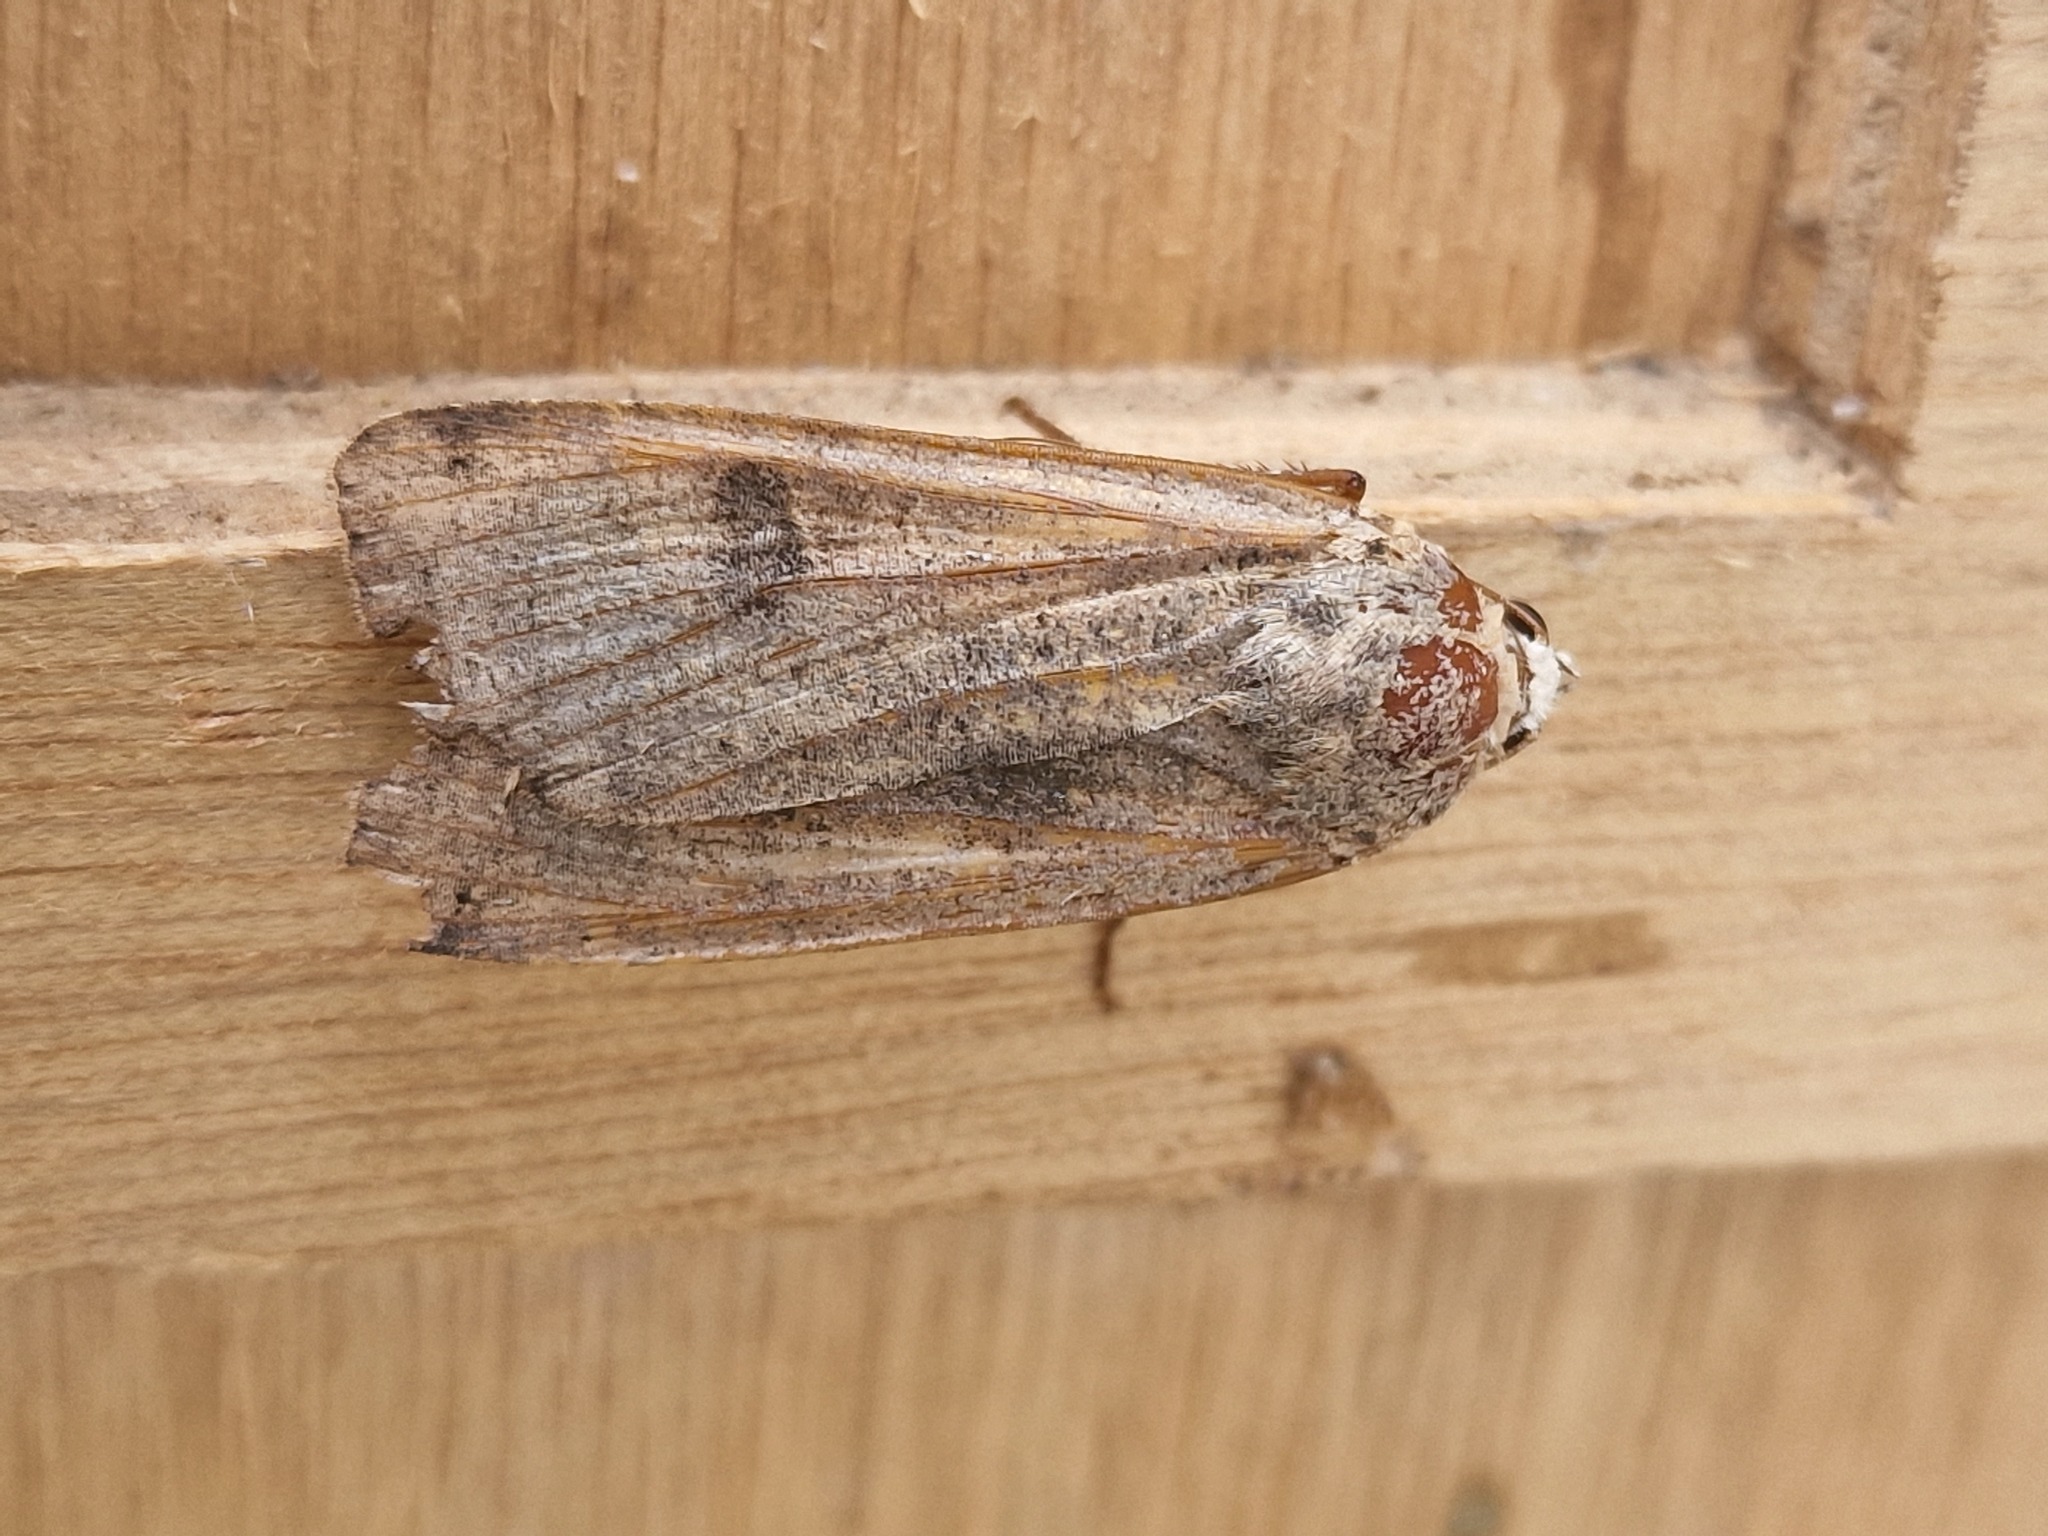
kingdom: Animalia
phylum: Arthropoda
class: Insecta
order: Lepidoptera
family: Noctuidae
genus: Noctua
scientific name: Noctua pronuba
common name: Large yellow underwing
